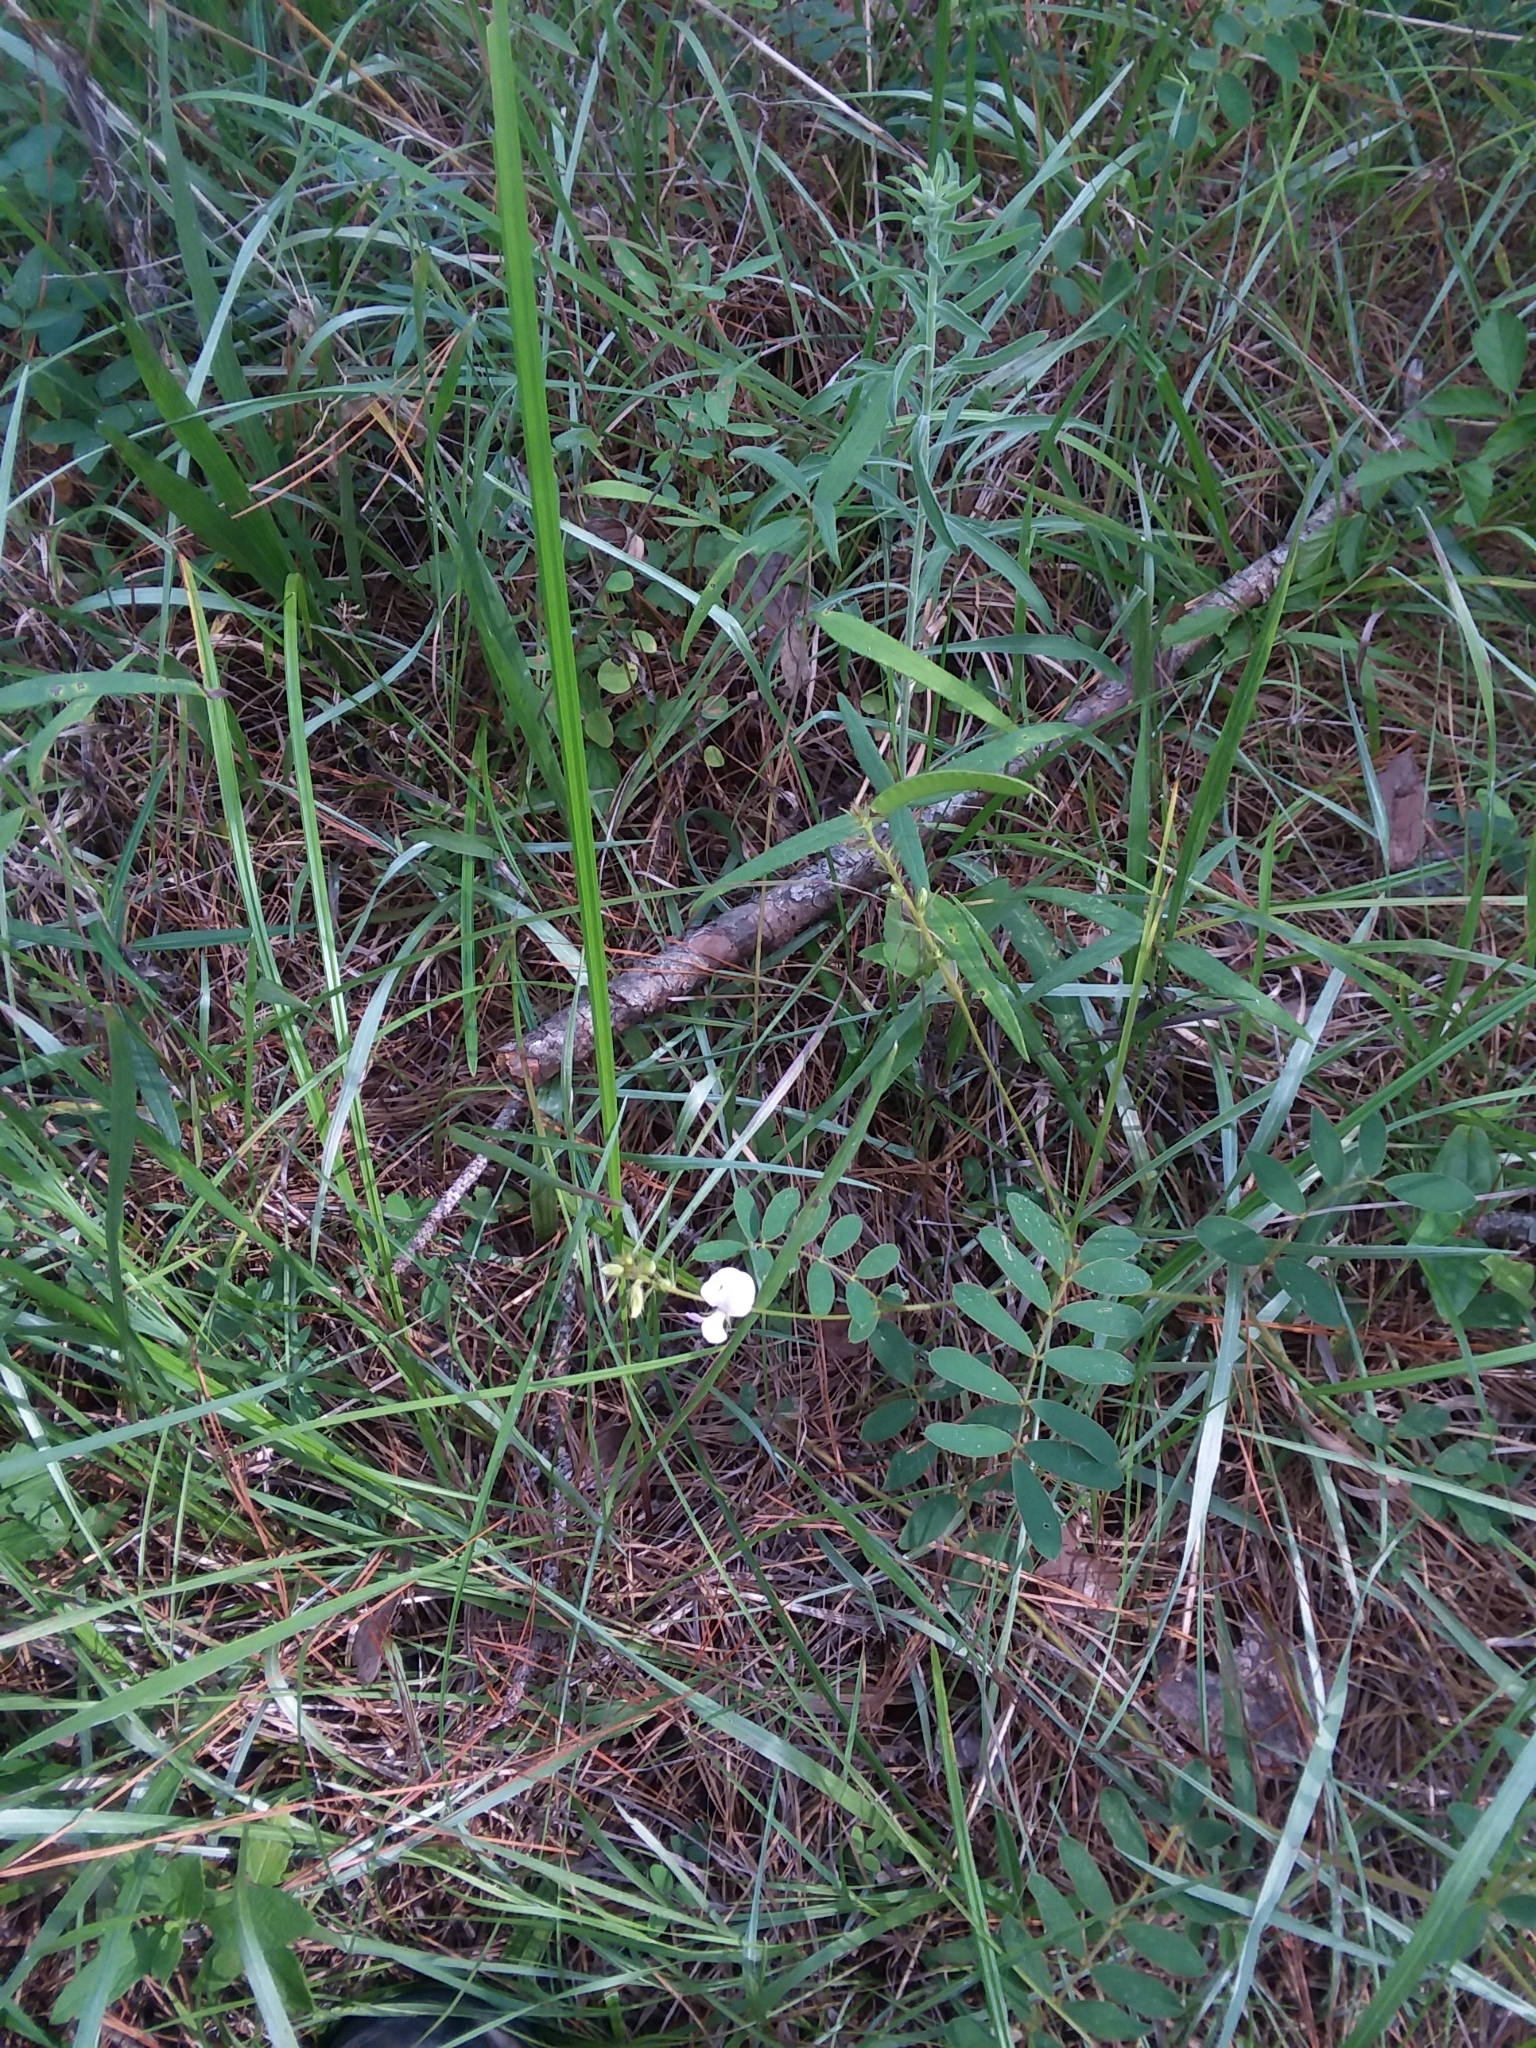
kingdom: Plantae
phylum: Tracheophyta
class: Magnoliopsida
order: Fabales
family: Fabaceae
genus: Tephrosia
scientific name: Tephrosia spicata
